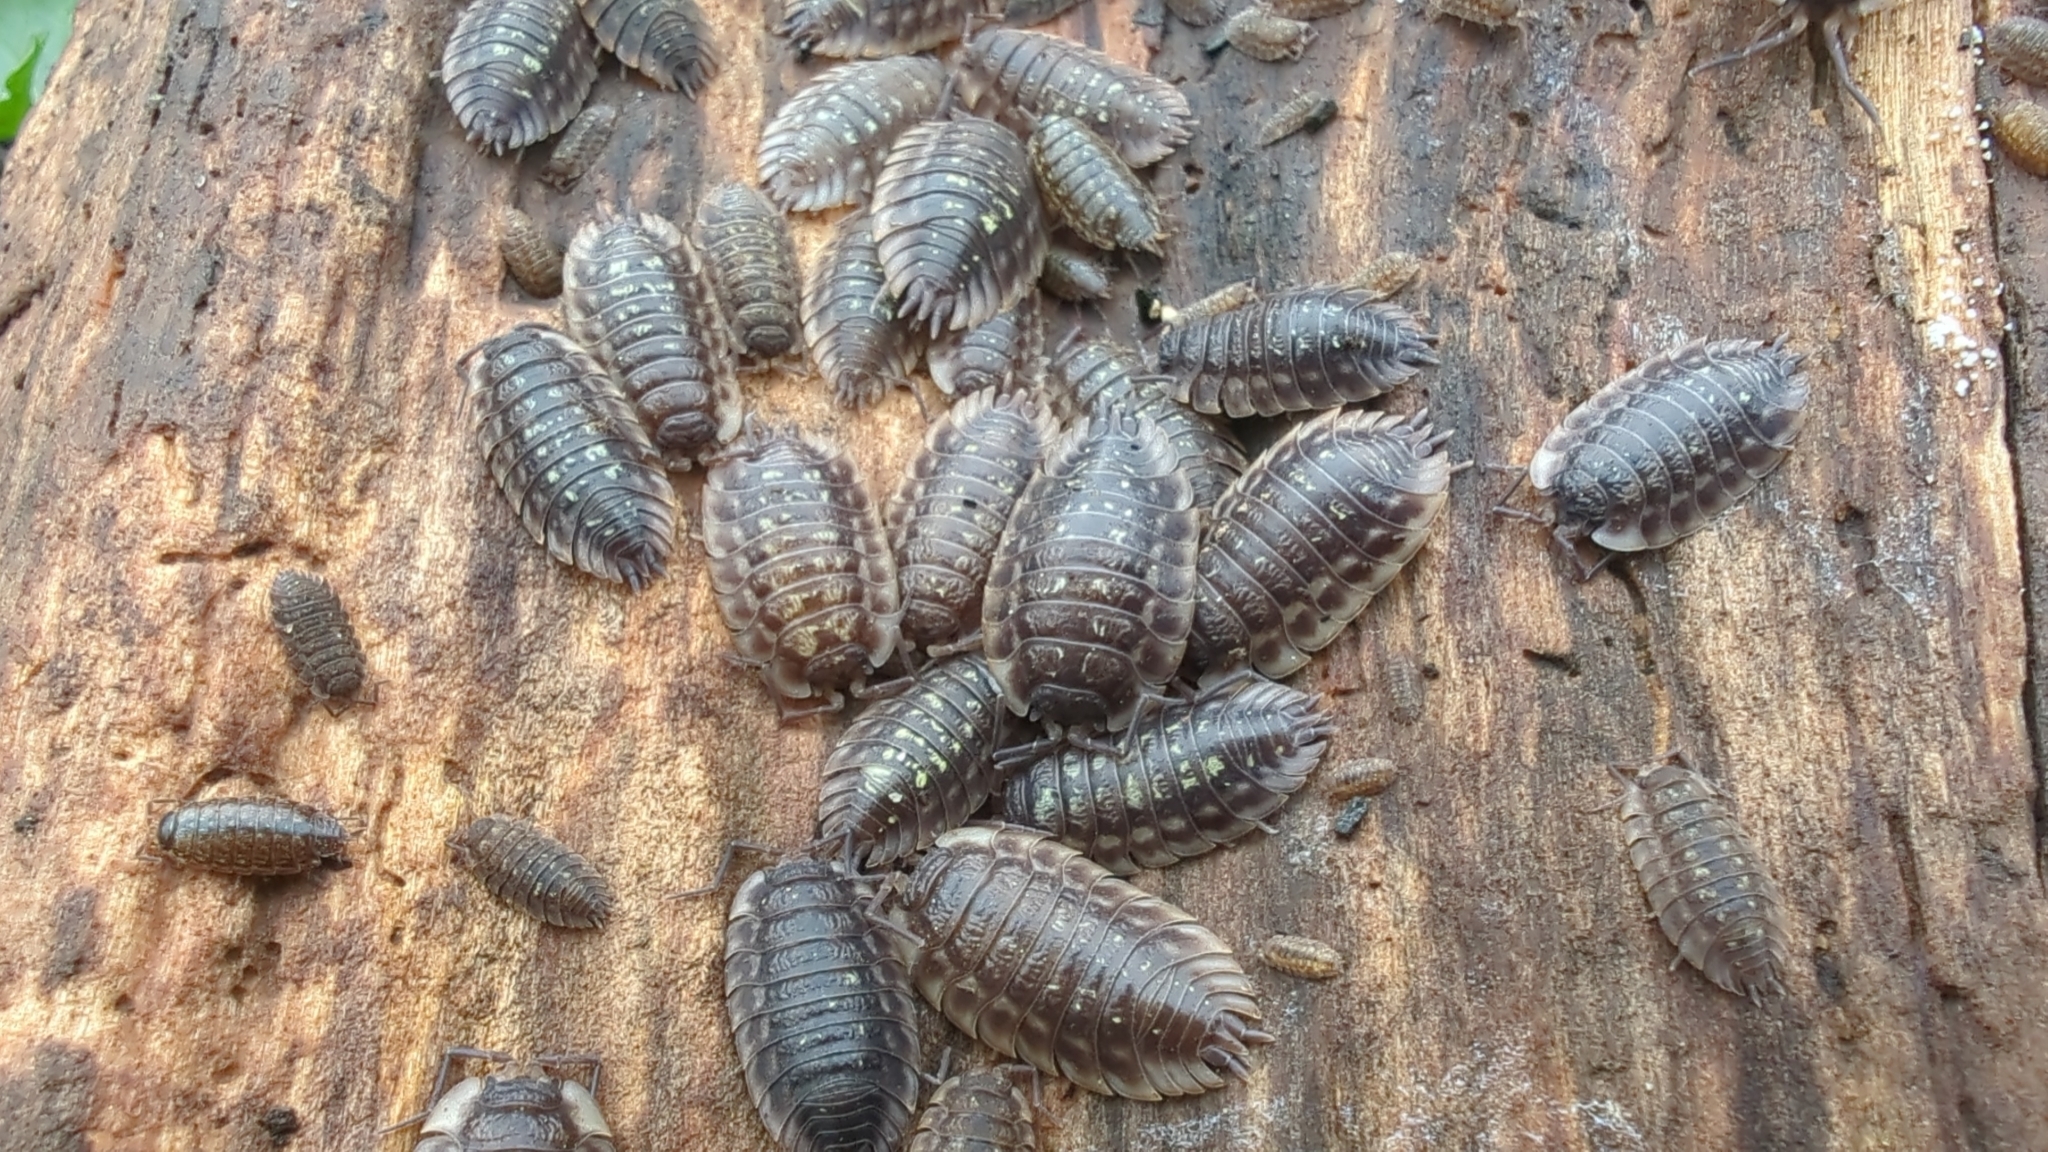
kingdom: Animalia
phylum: Arthropoda
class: Malacostraca
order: Isopoda
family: Oniscidae
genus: Oniscus
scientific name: Oniscus asellus
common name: Common shiny woodlouse
